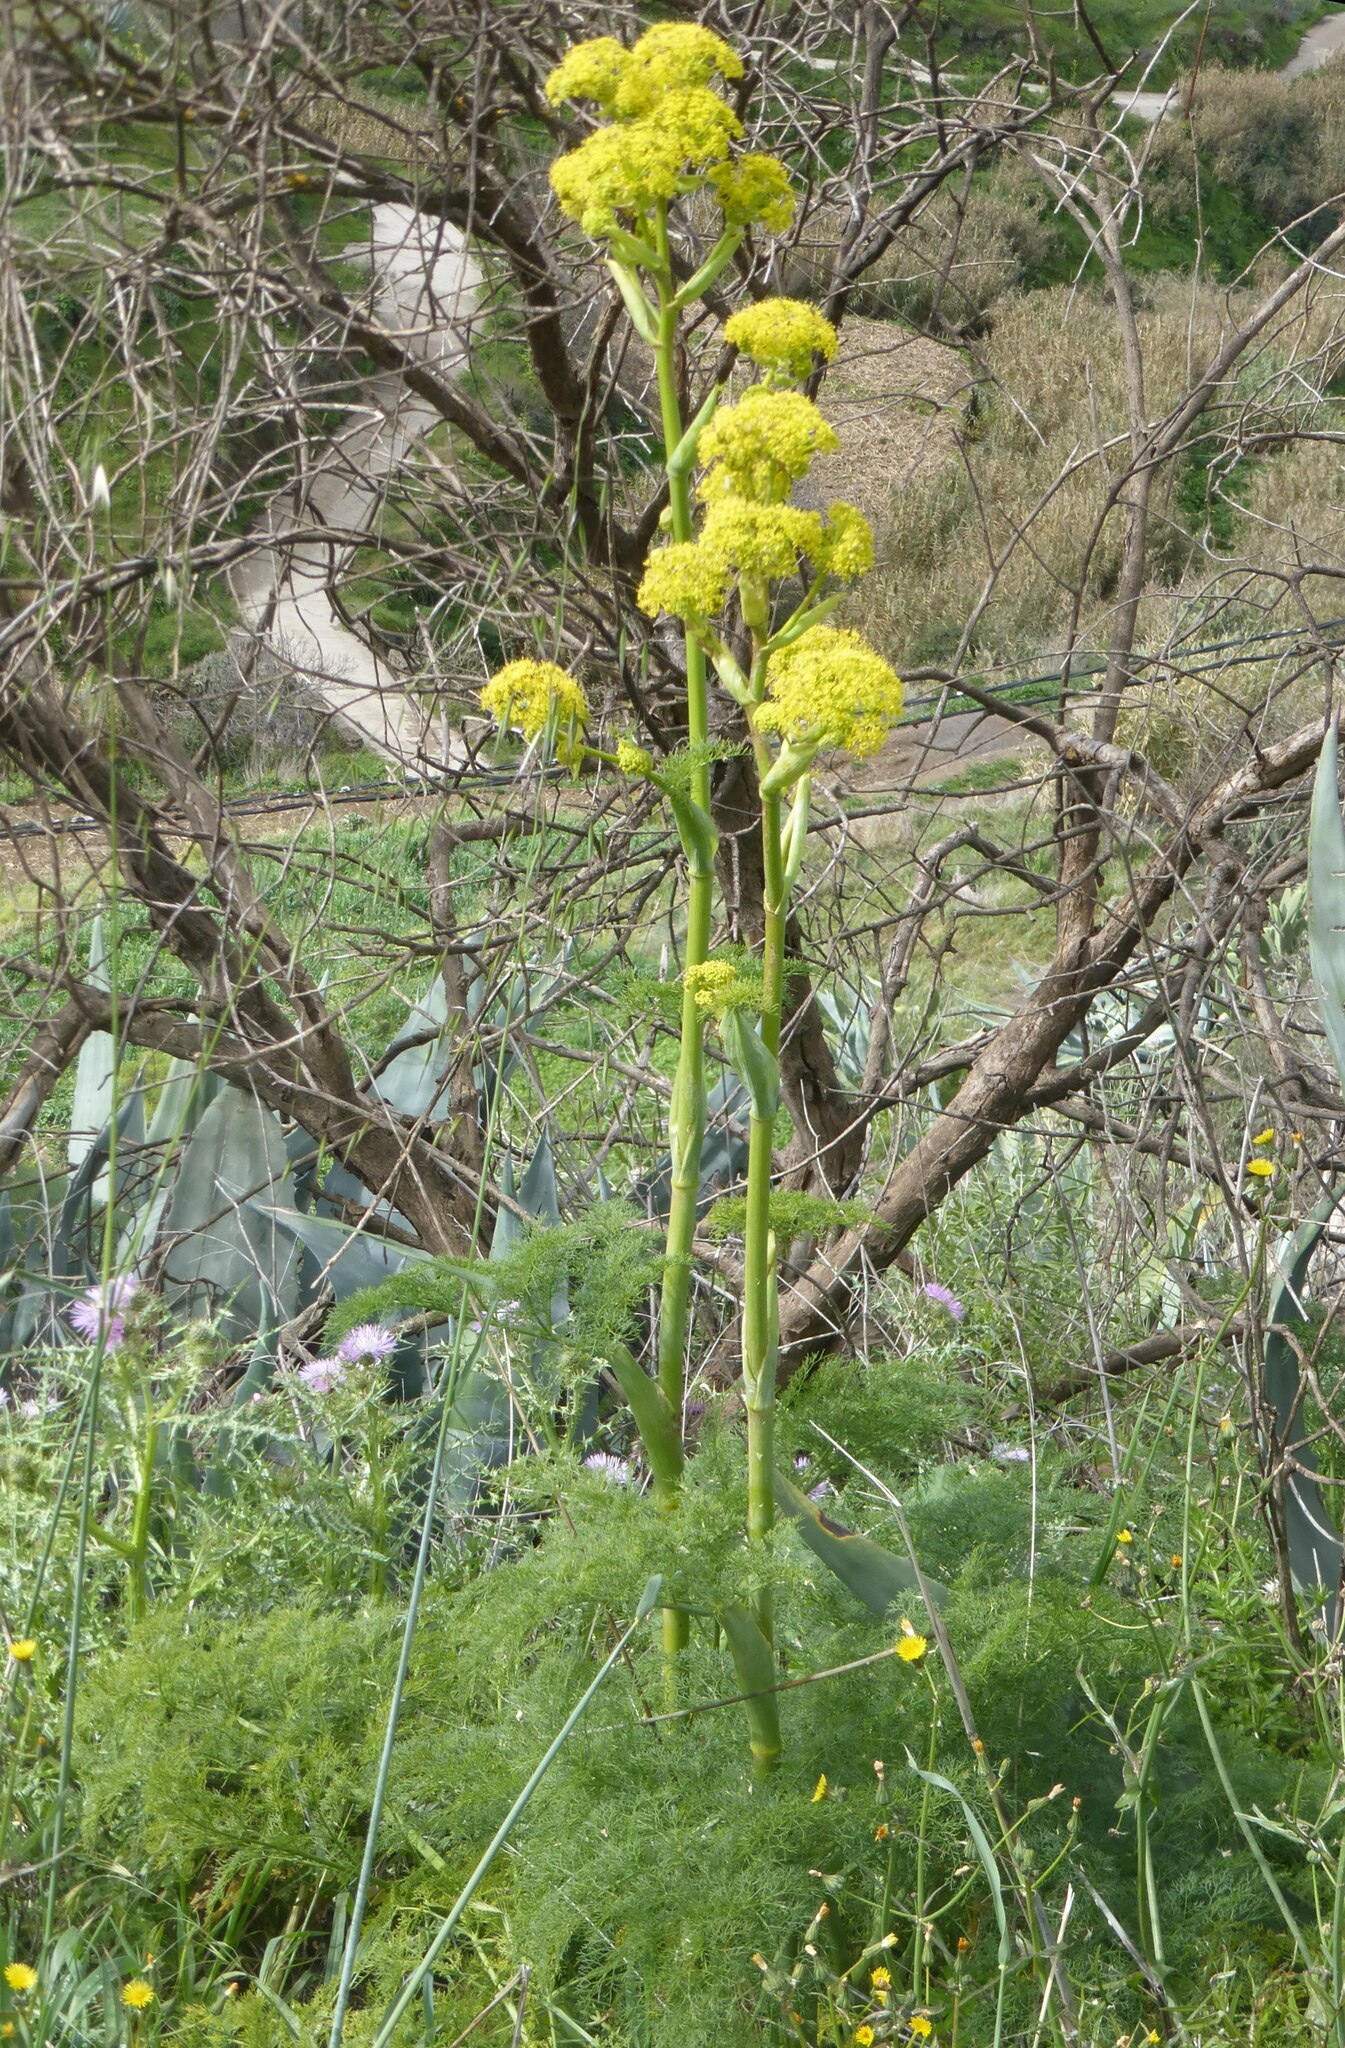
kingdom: Plantae
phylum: Tracheophyta
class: Magnoliopsida
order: Apiales
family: Apiaceae
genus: Ferula
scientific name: Ferula communis
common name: Giant fennel
